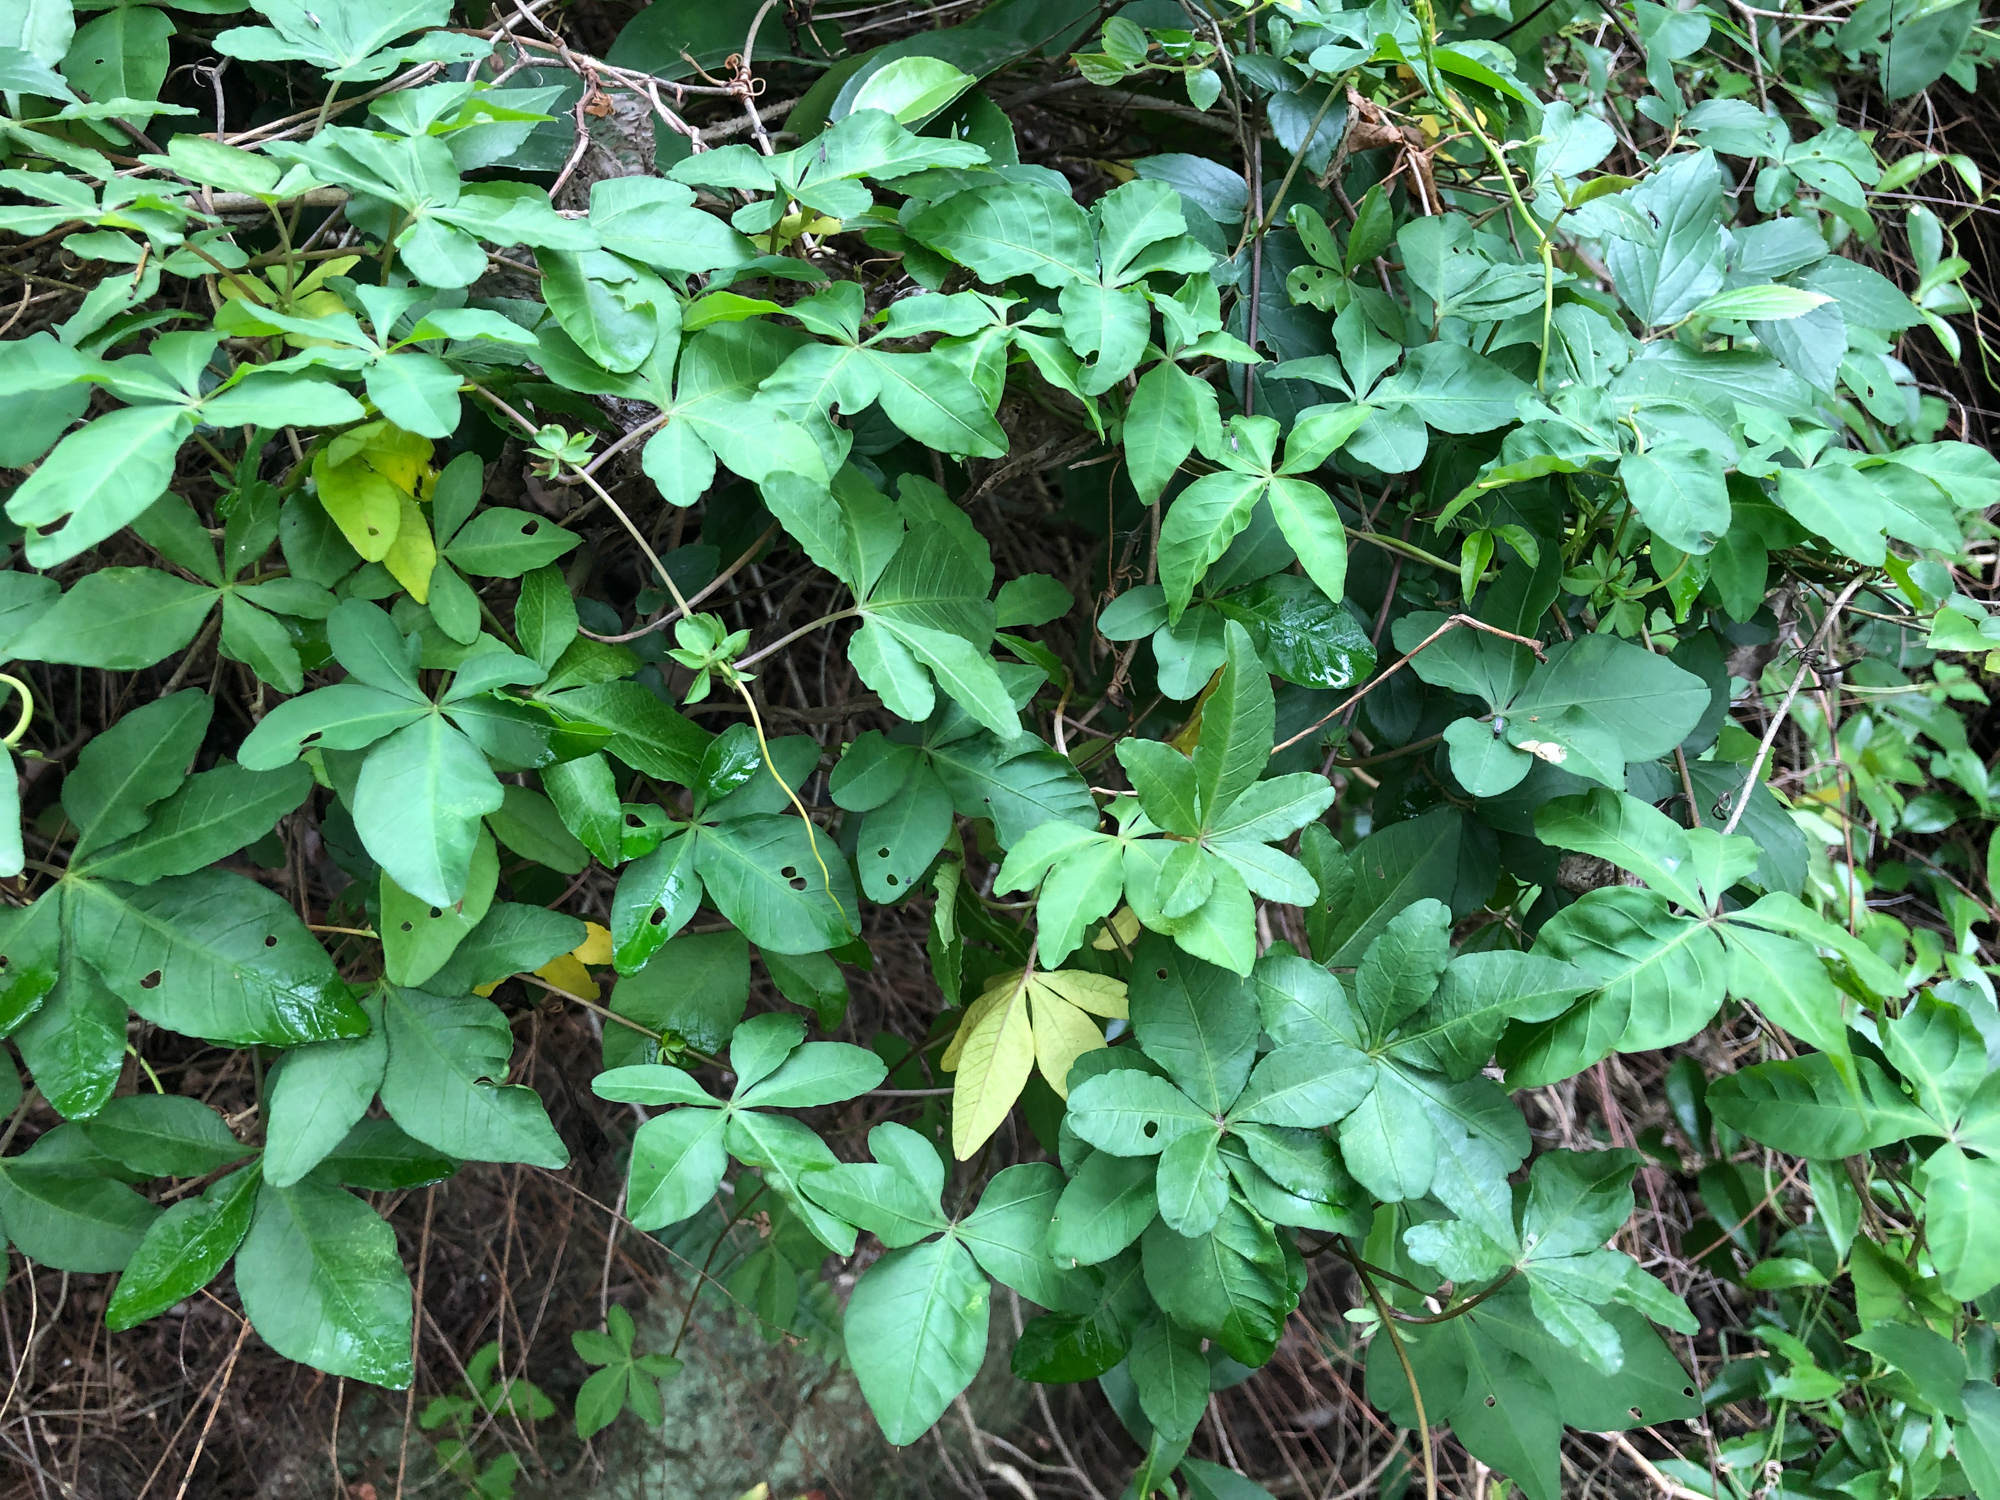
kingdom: Plantae
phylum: Tracheophyta
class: Magnoliopsida
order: Solanales
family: Convolvulaceae
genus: Ipomoea
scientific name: Ipomoea cairica
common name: Mile a minute vine
